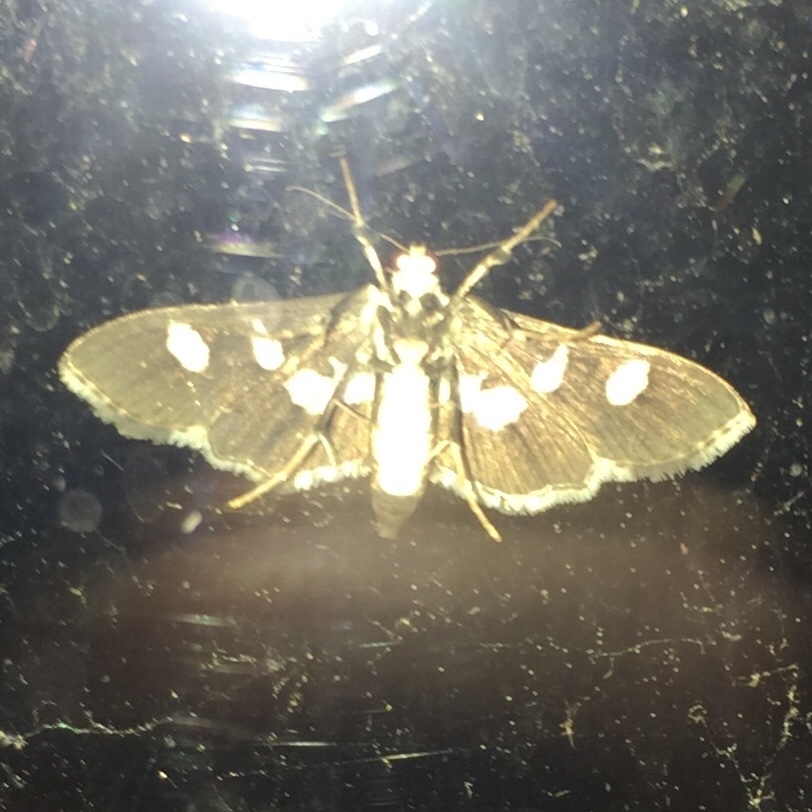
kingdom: Animalia
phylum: Arthropoda
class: Insecta
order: Lepidoptera
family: Crambidae
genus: Desmia
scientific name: Desmia funeralis
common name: Grape leaf folder moth
